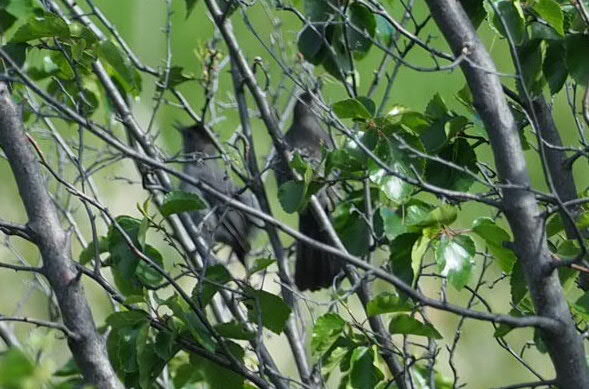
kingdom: Animalia
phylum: Chordata
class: Aves
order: Passeriformes
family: Mimidae
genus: Dumetella
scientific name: Dumetella carolinensis
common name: Gray catbird
